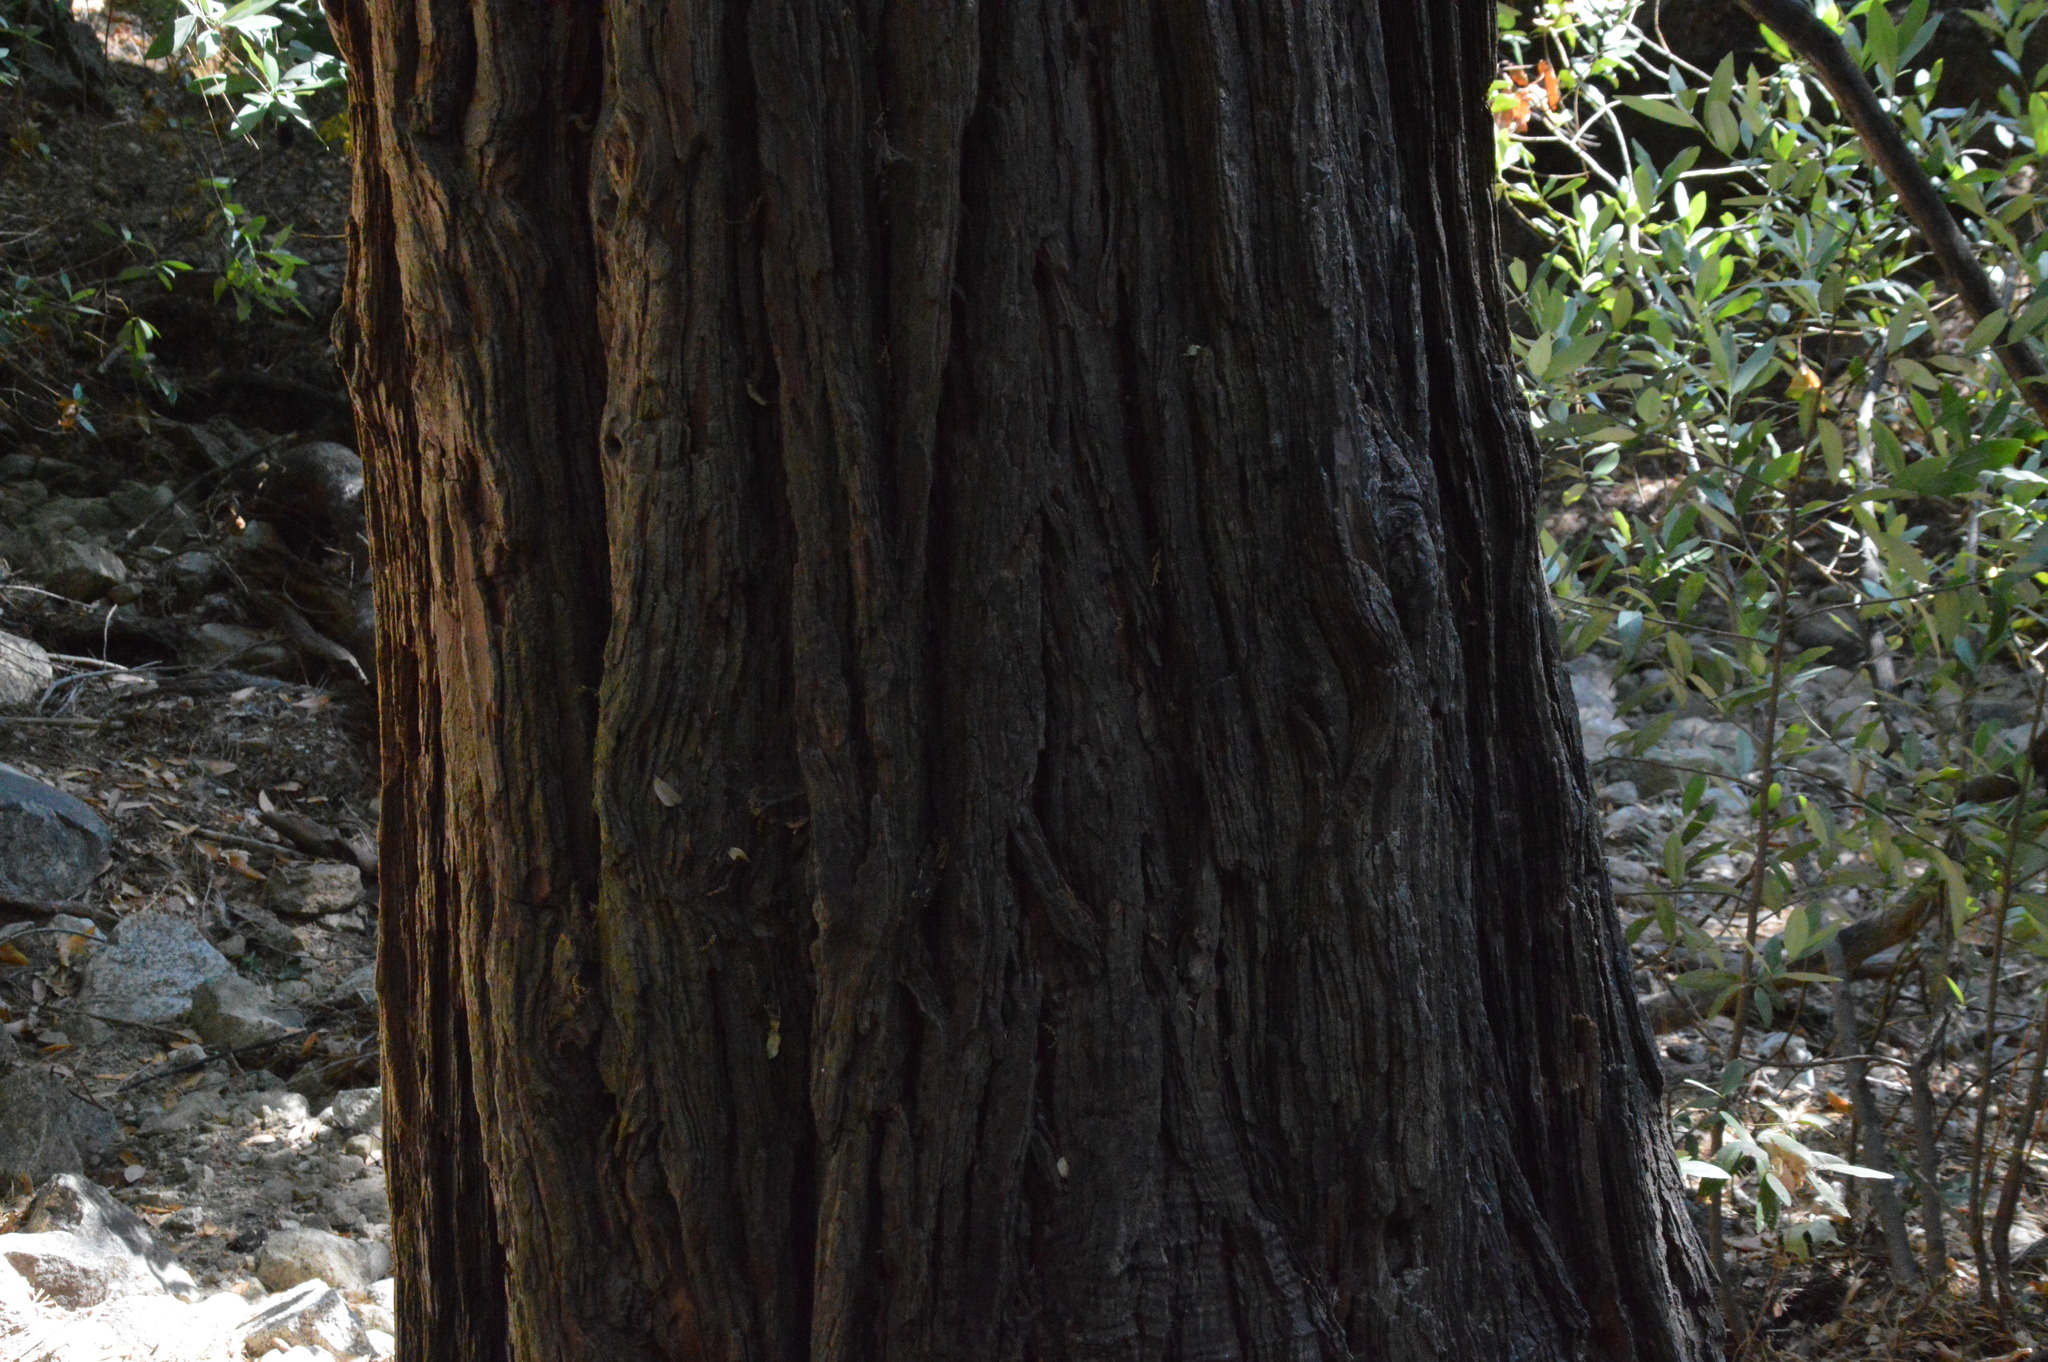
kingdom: Plantae
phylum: Tracheophyta
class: Pinopsida
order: Pinales
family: Cupressaceae
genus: Calocedrus
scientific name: Calocedrus decurrens
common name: Californian incense-cedar
